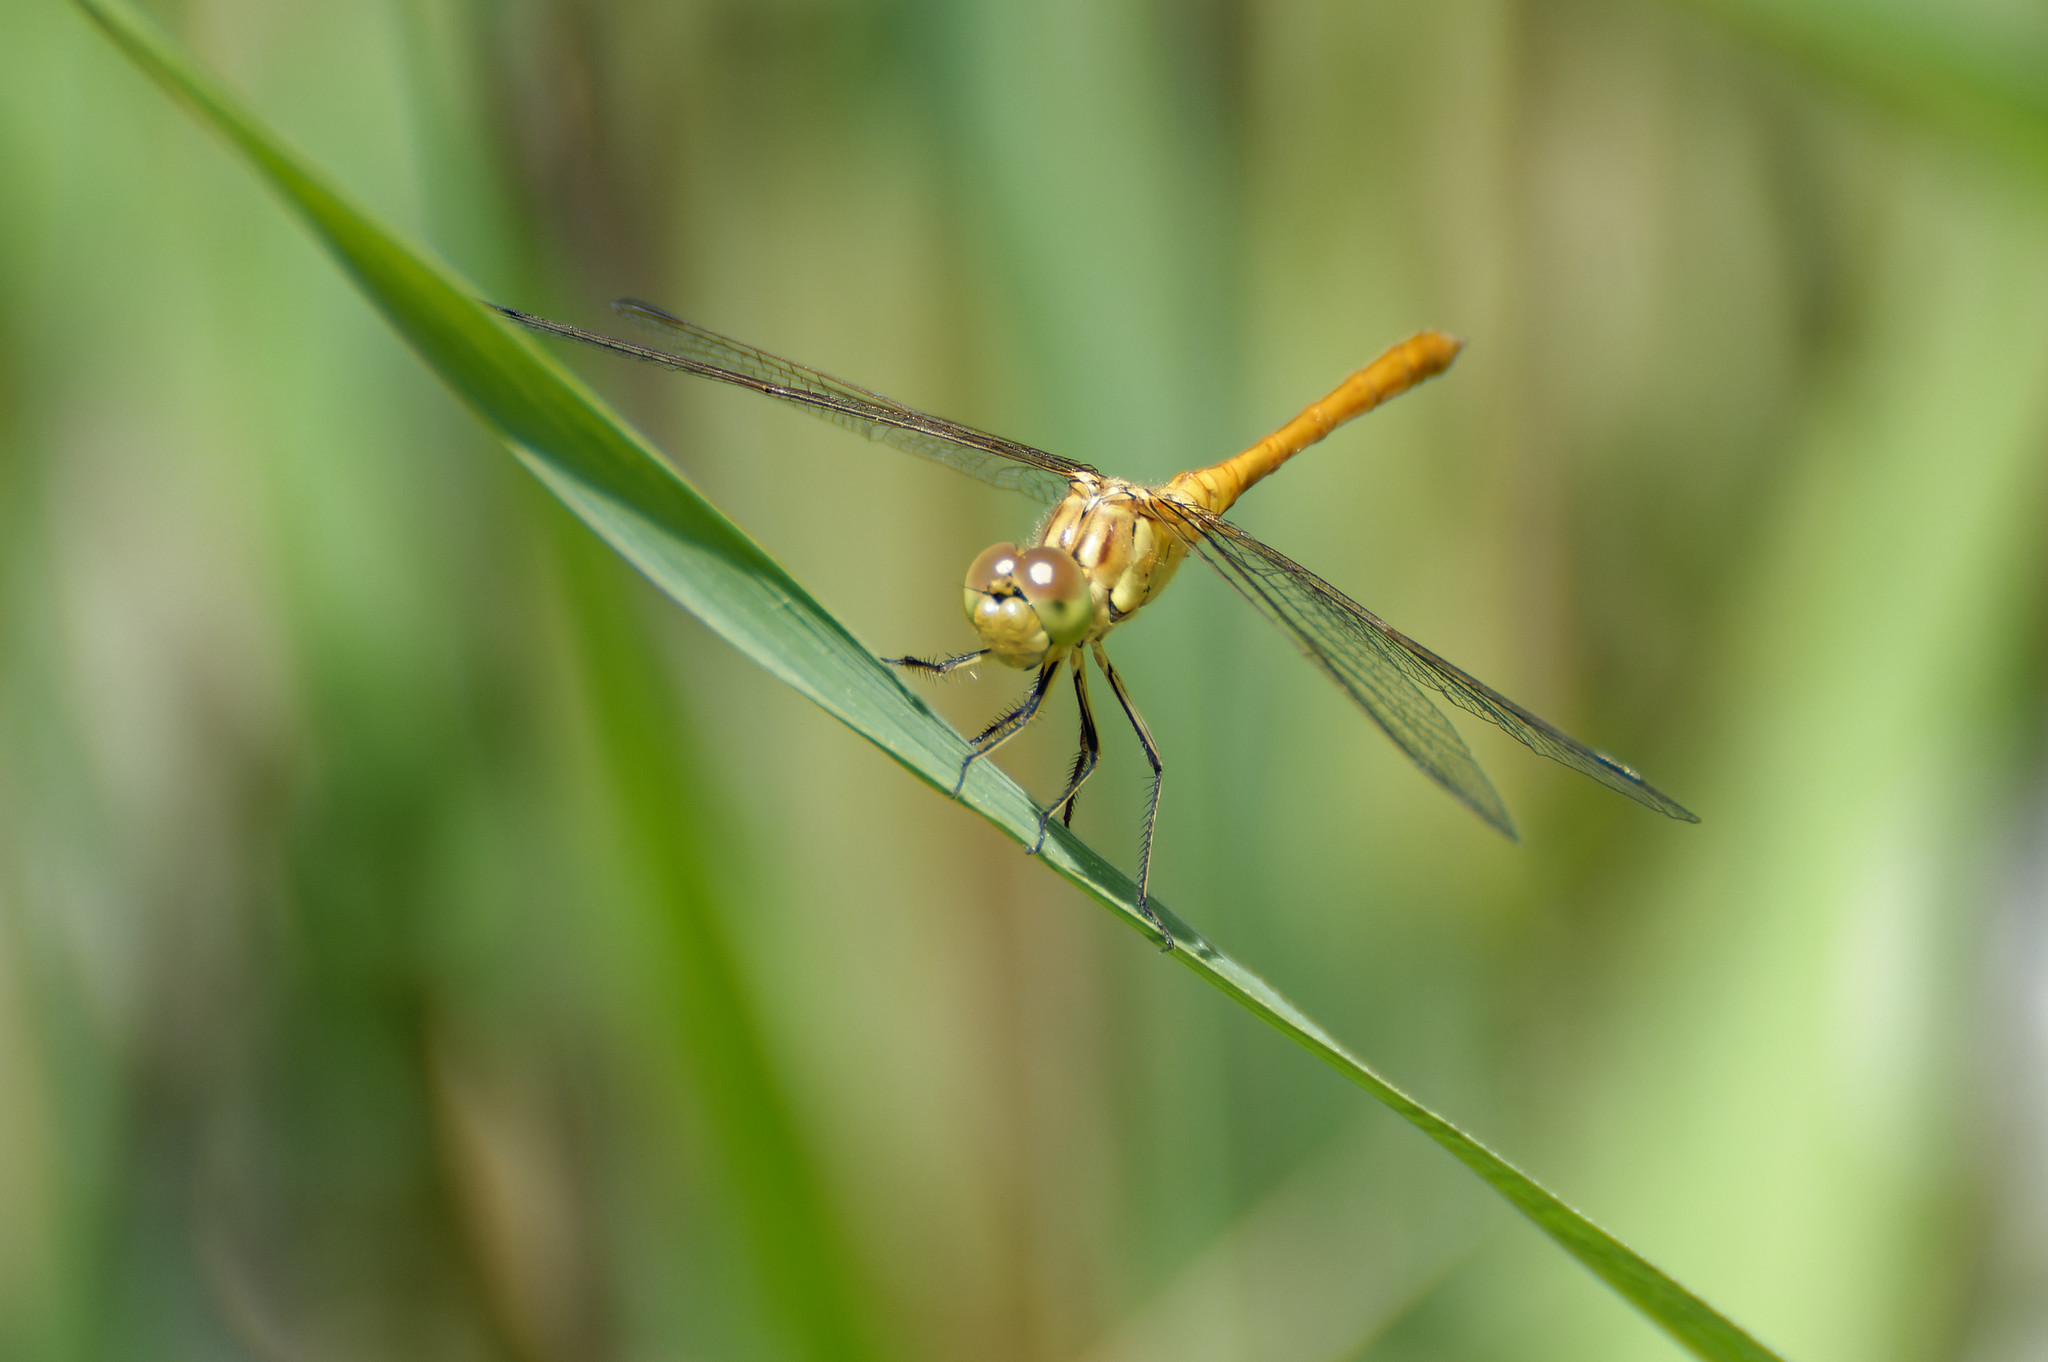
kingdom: Animalia
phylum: Arthropoda
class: Insecta
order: Odonata
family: Libellulidae
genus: Sympetrum
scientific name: Sympetrum meridionale
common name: Southern darter
